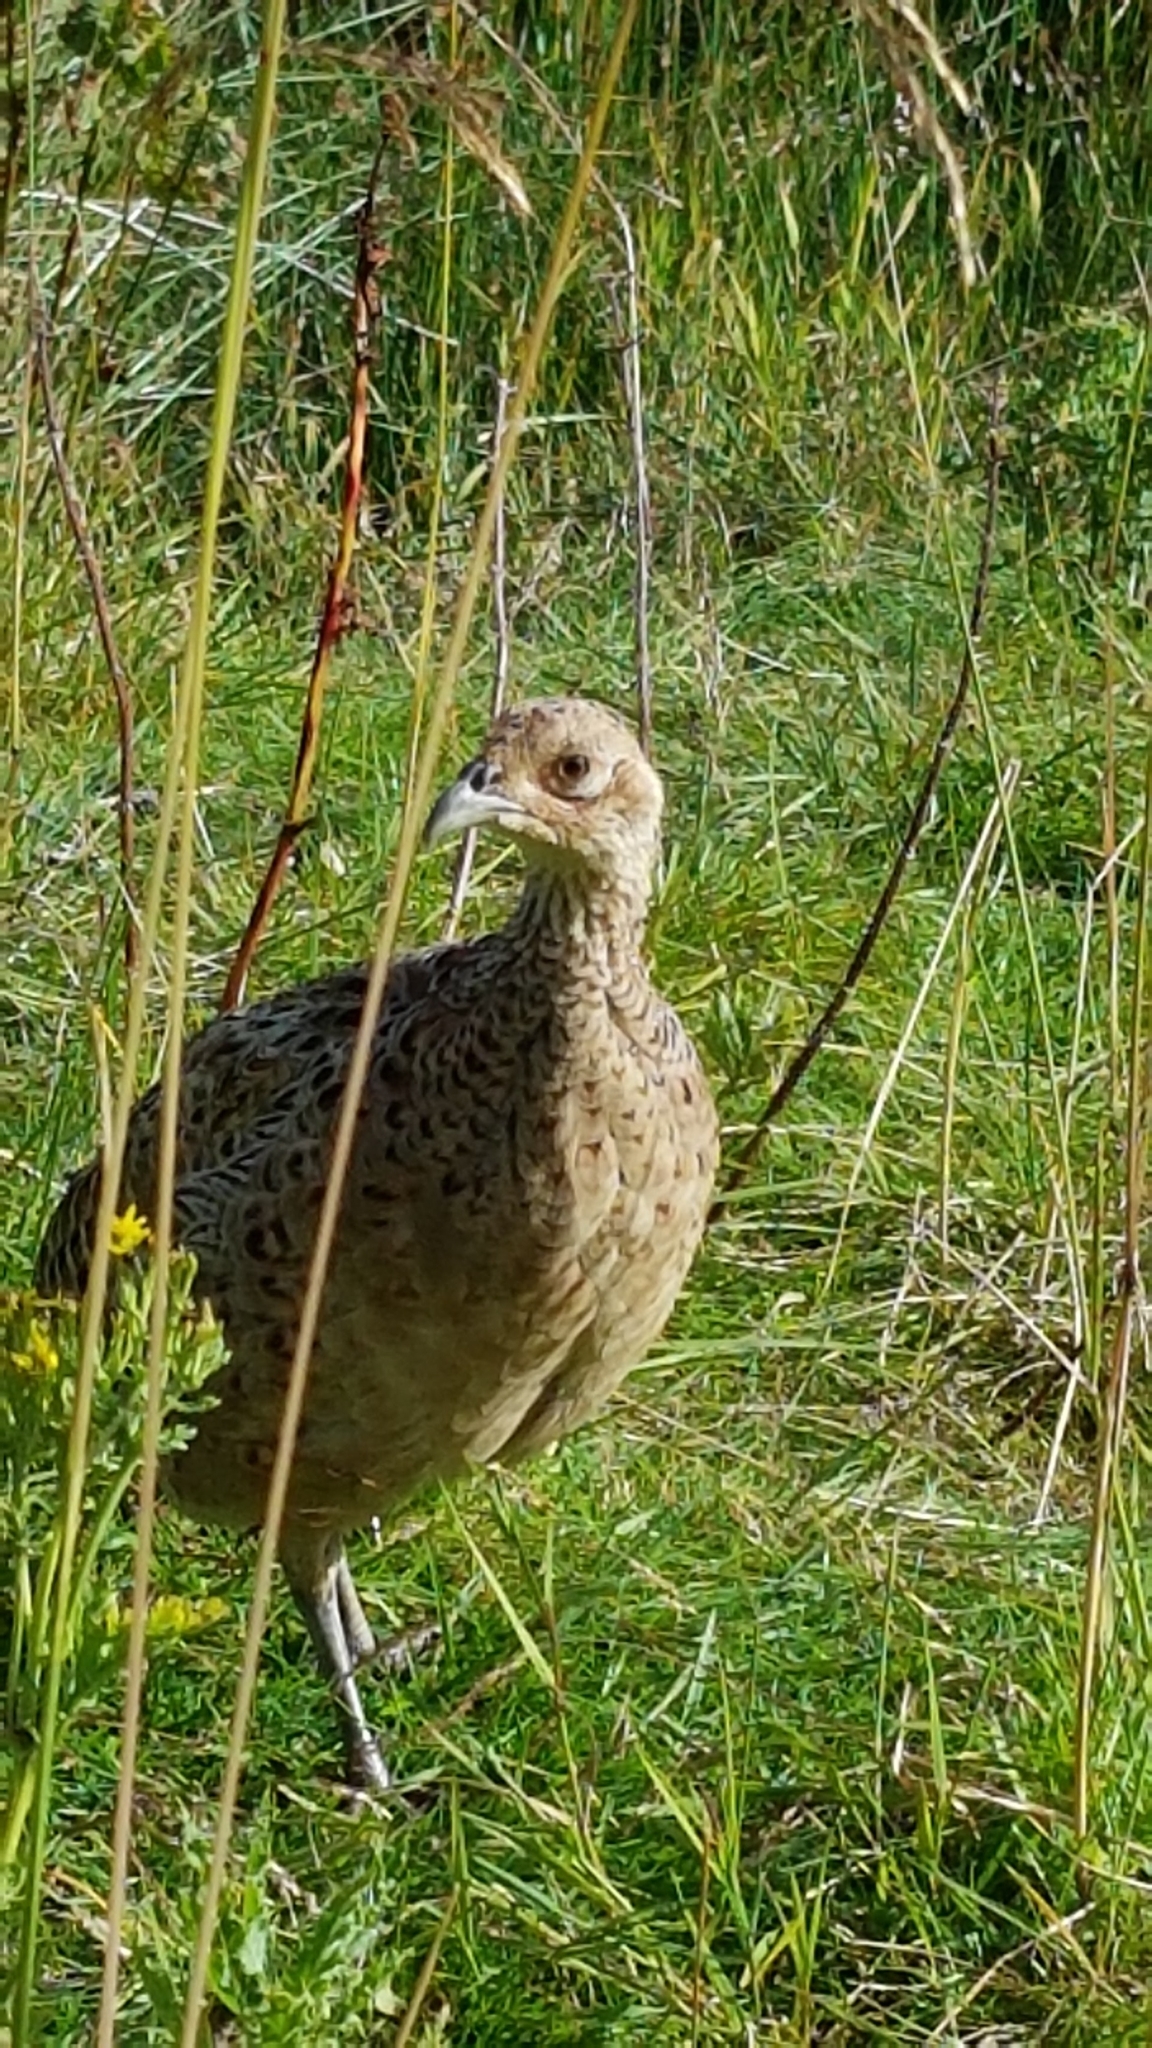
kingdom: Animalia
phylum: Chordata
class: Aves
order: Galliformes
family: Phasianidae
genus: Phasianus
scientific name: Phasianus colchicus
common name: Common pheasant
